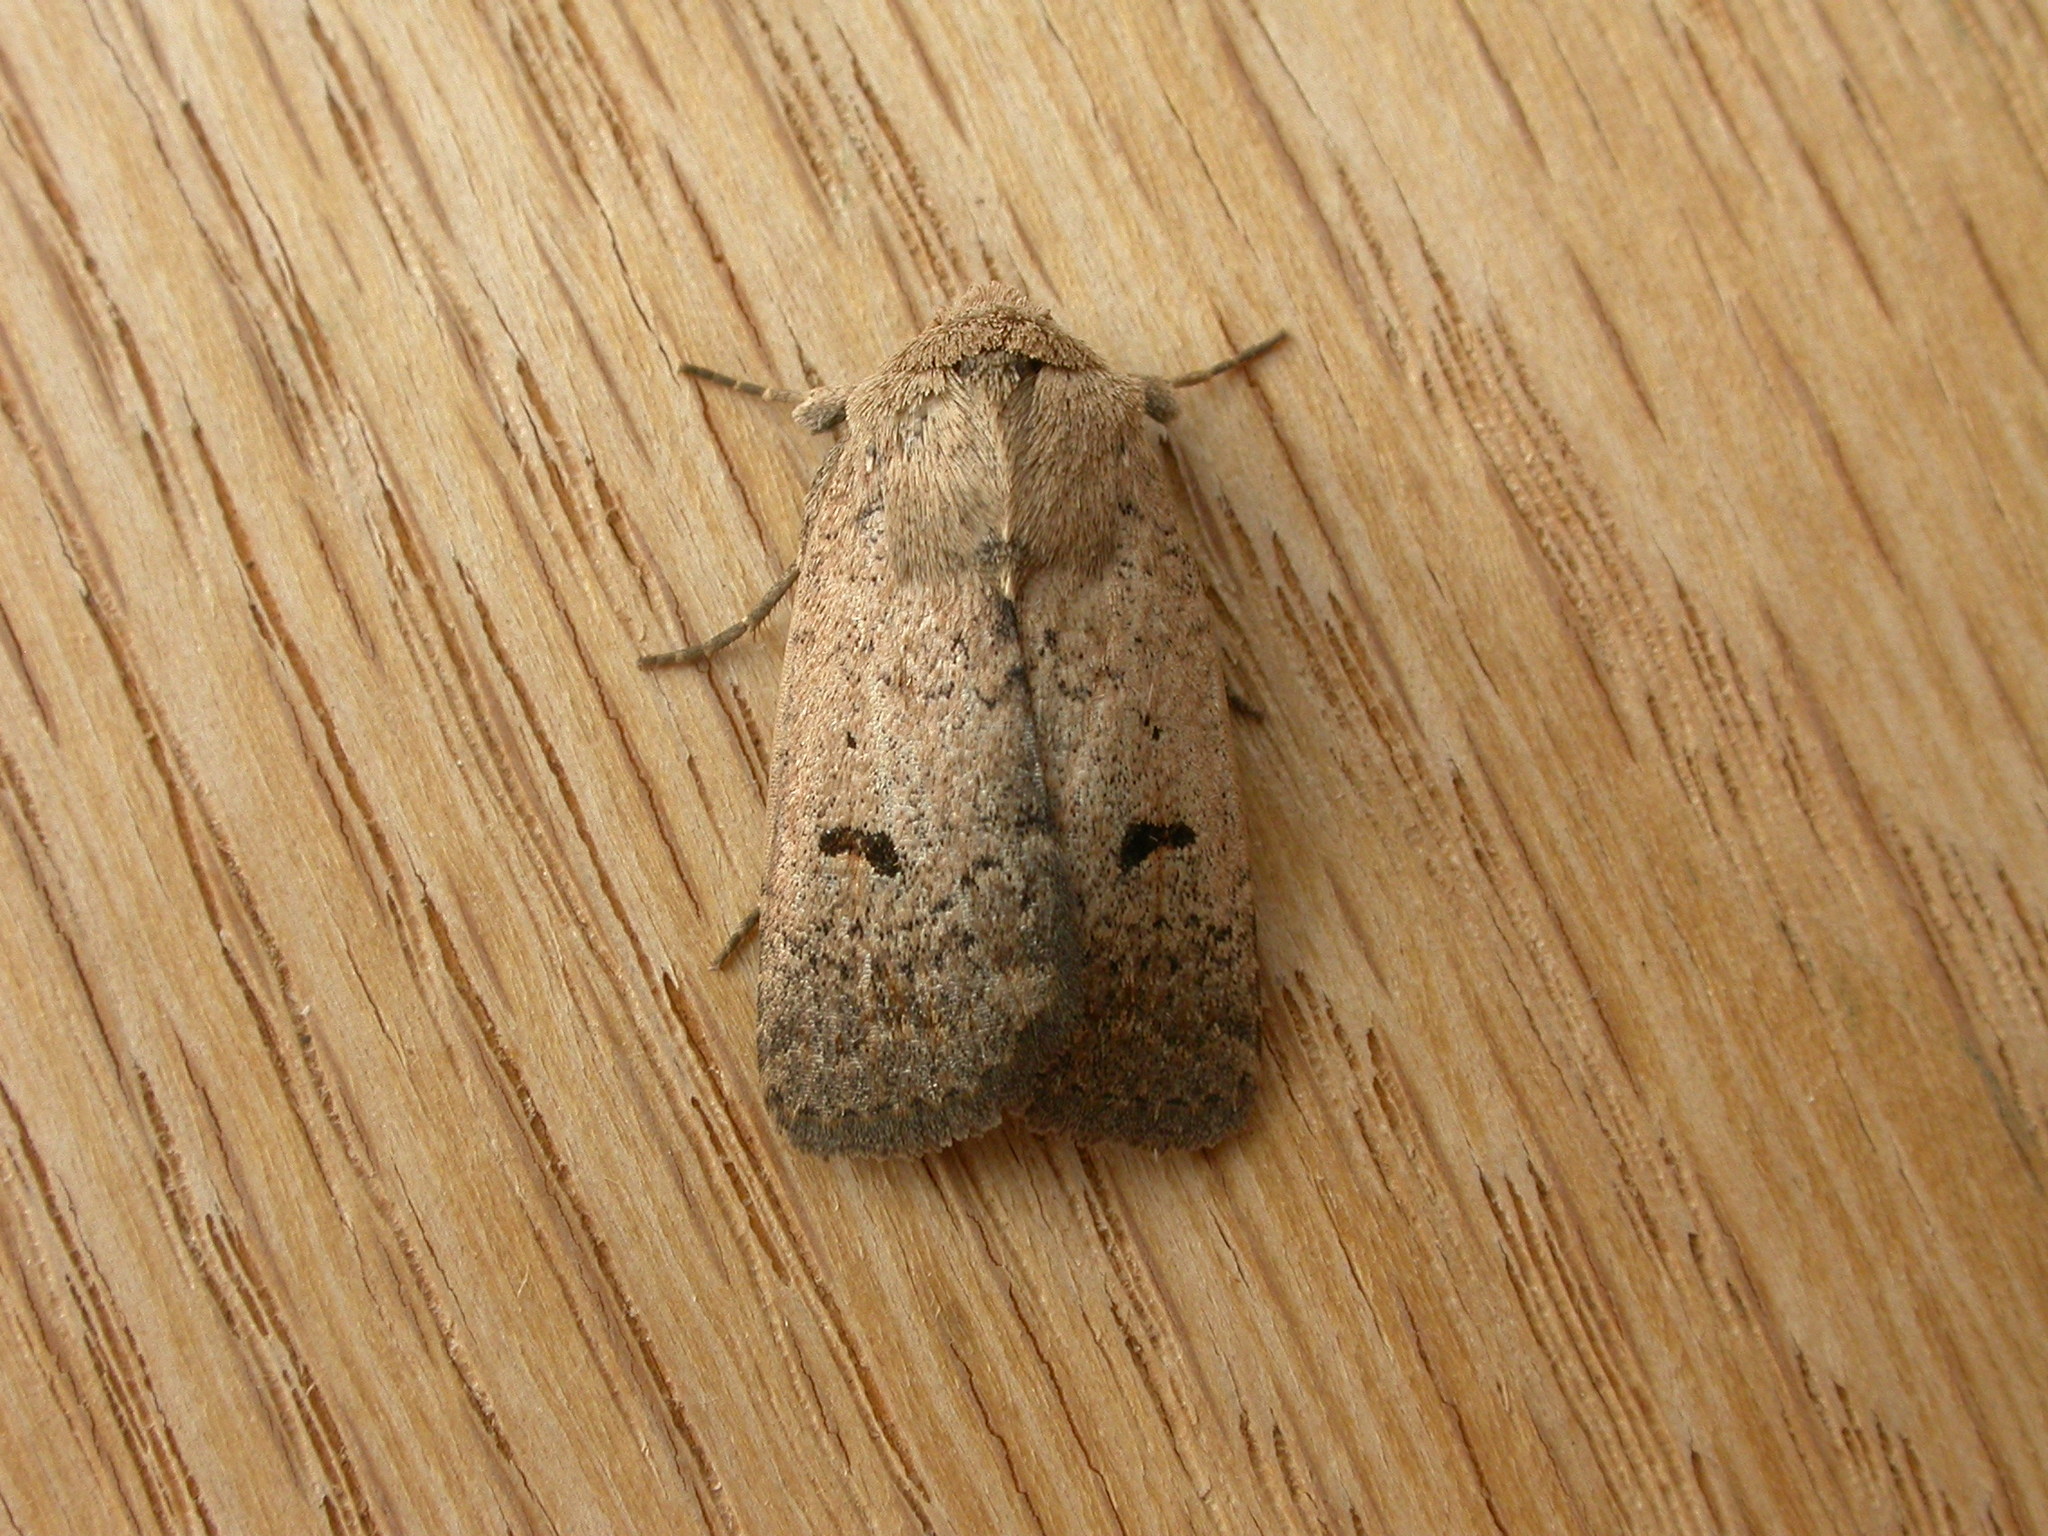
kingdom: Animalia
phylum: Arthropoda
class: Insecta
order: Lepidoptera
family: Noctuidae
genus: Proteuxoa
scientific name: Proteuxoa hypochalchis
